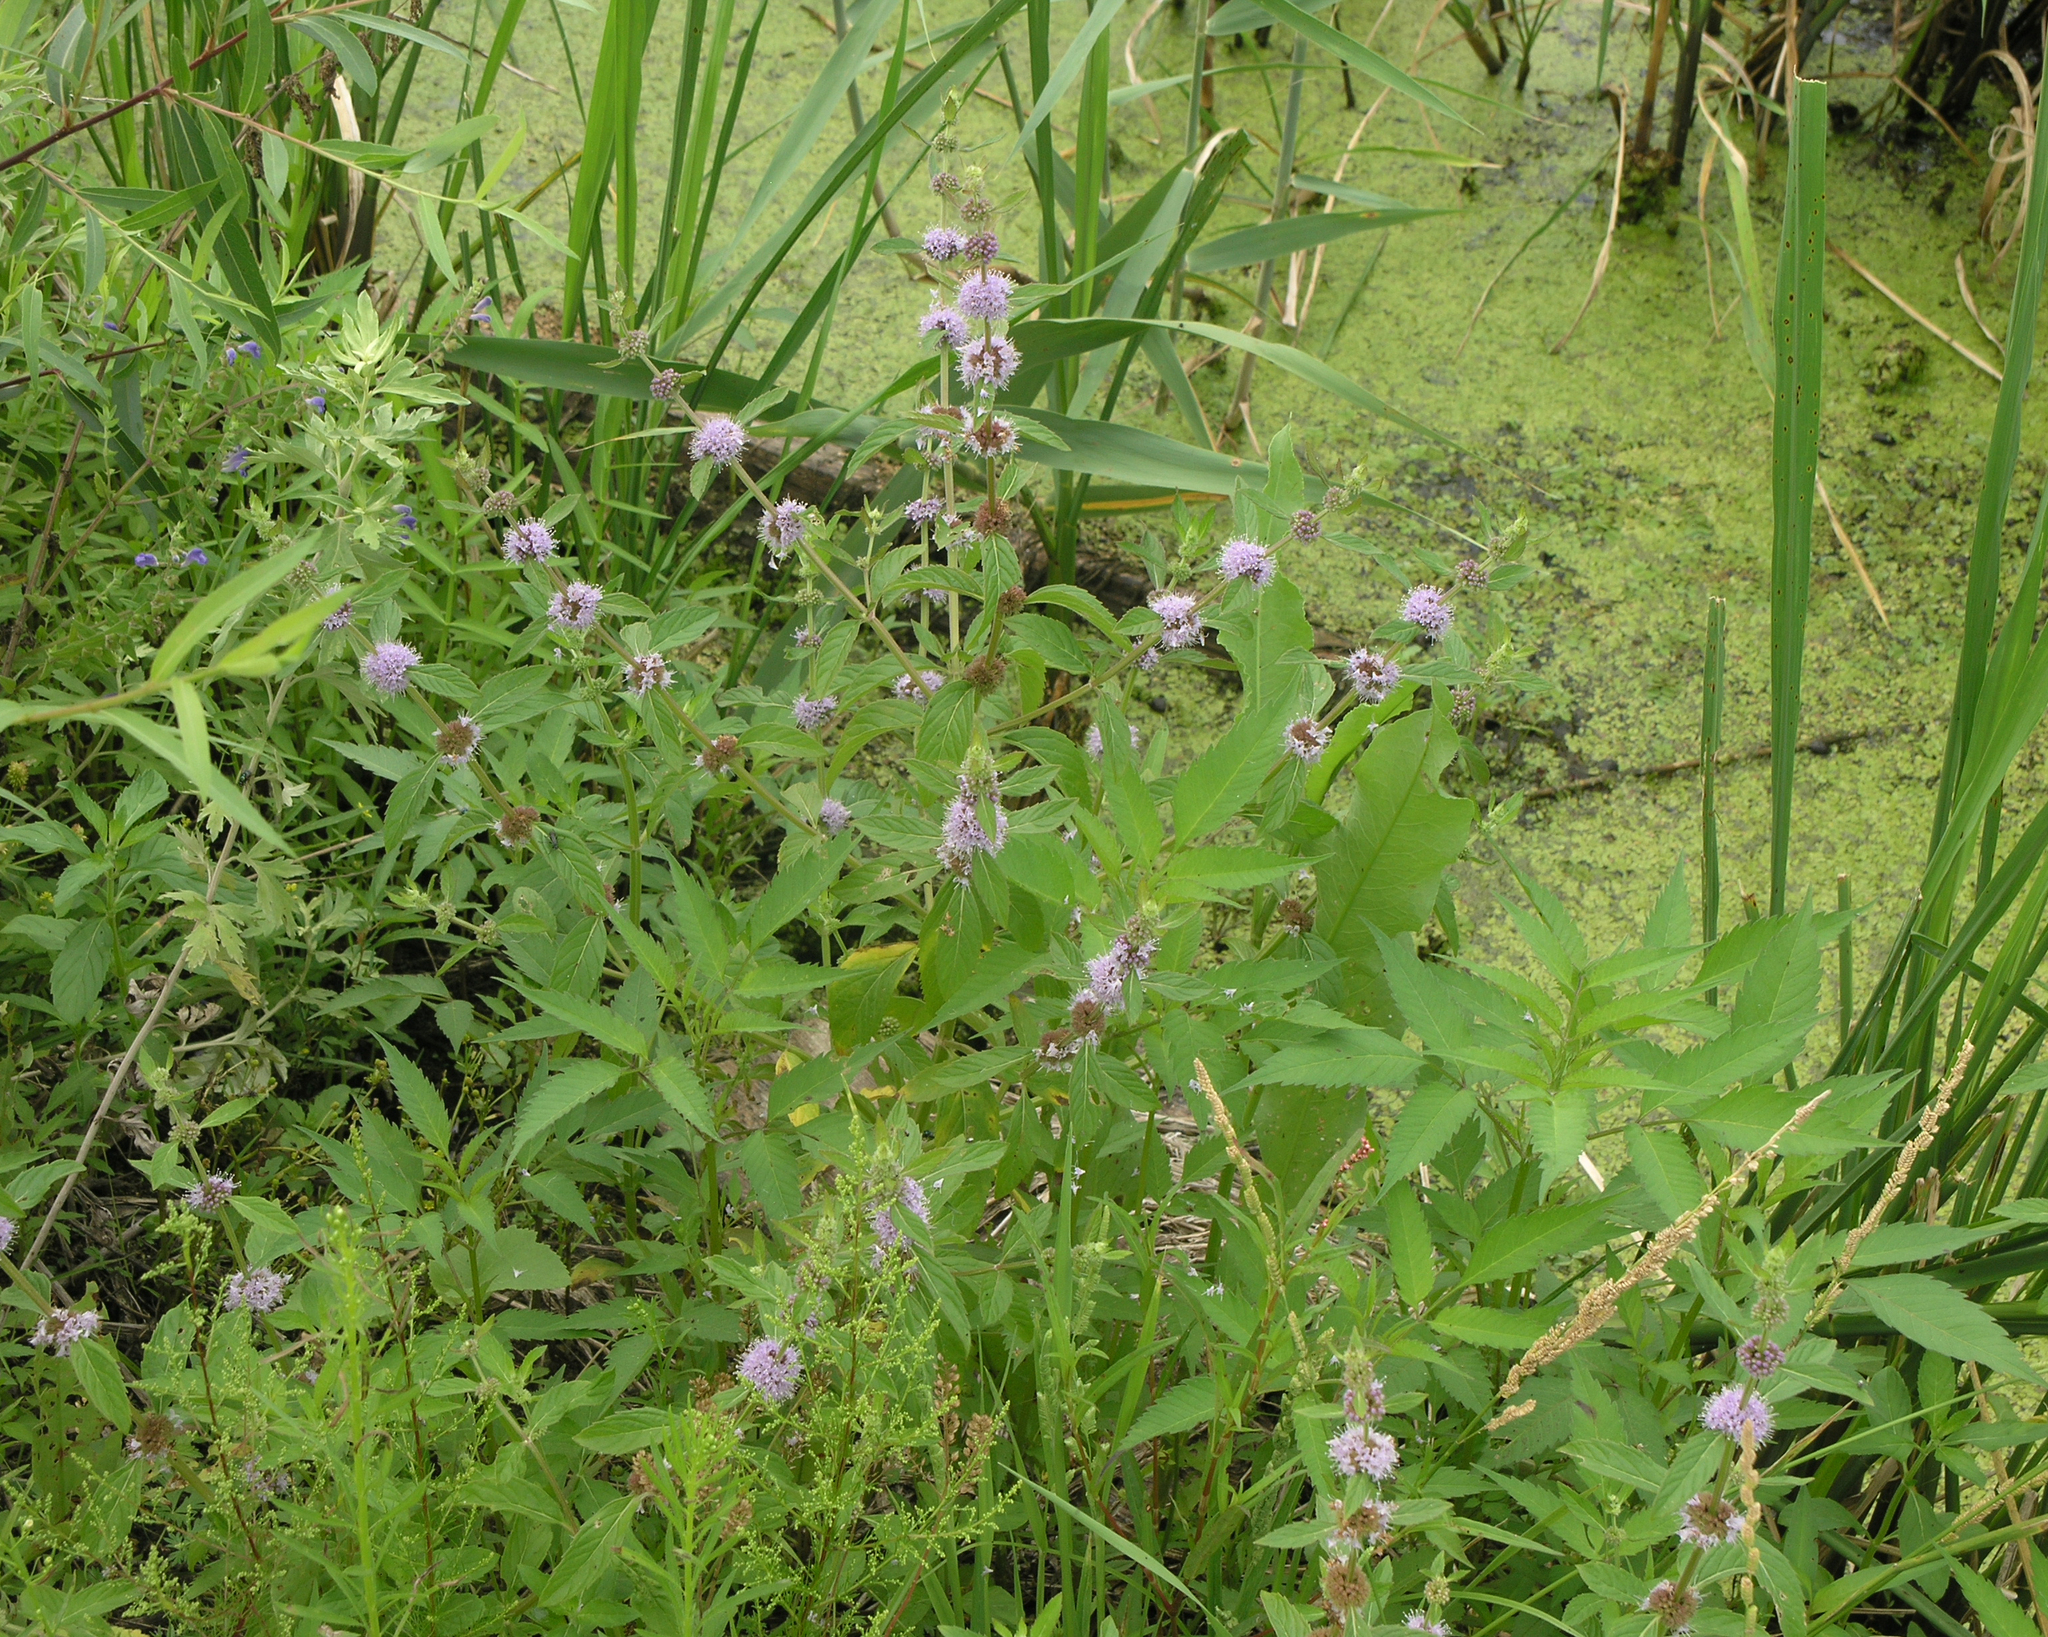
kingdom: Plantae
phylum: Tracheophyta
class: Magnoliopsida
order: Lamiales
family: Lamiaceae
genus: Mentha
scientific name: Mentha canadensis
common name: American corn mint
